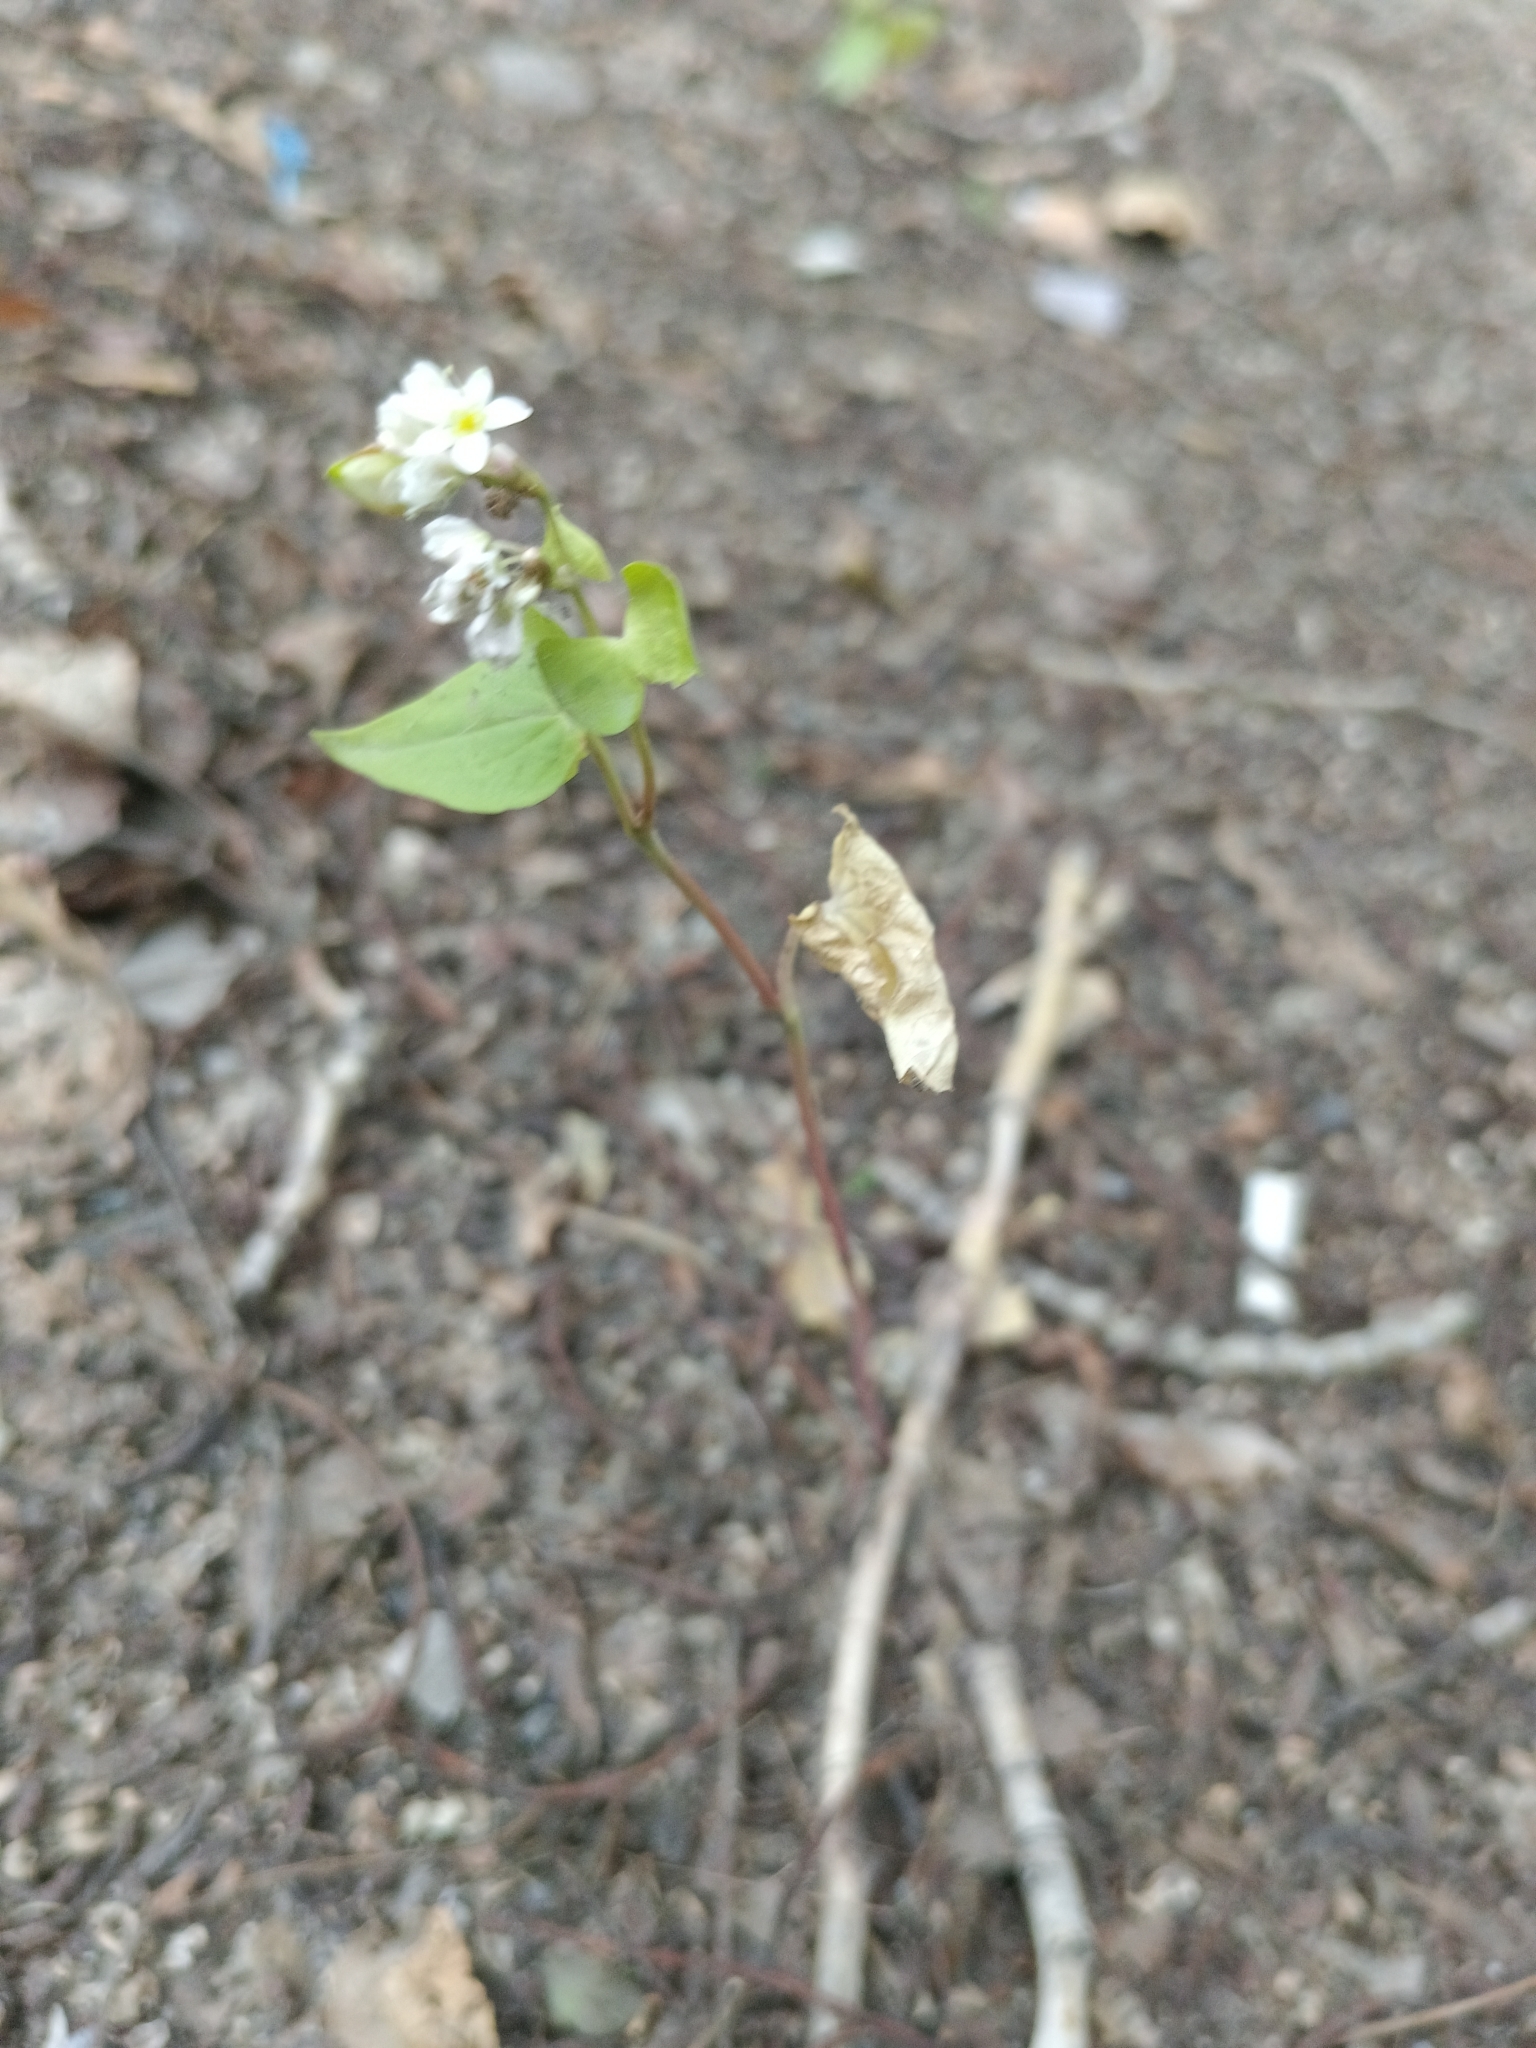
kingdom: Plantae
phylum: Tracheophyta
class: Magnoliopsida
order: Caryophyllales
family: Polygonaceae
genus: Fagopyrum
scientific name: Fagopyrum esculentum
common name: Buckwheat
